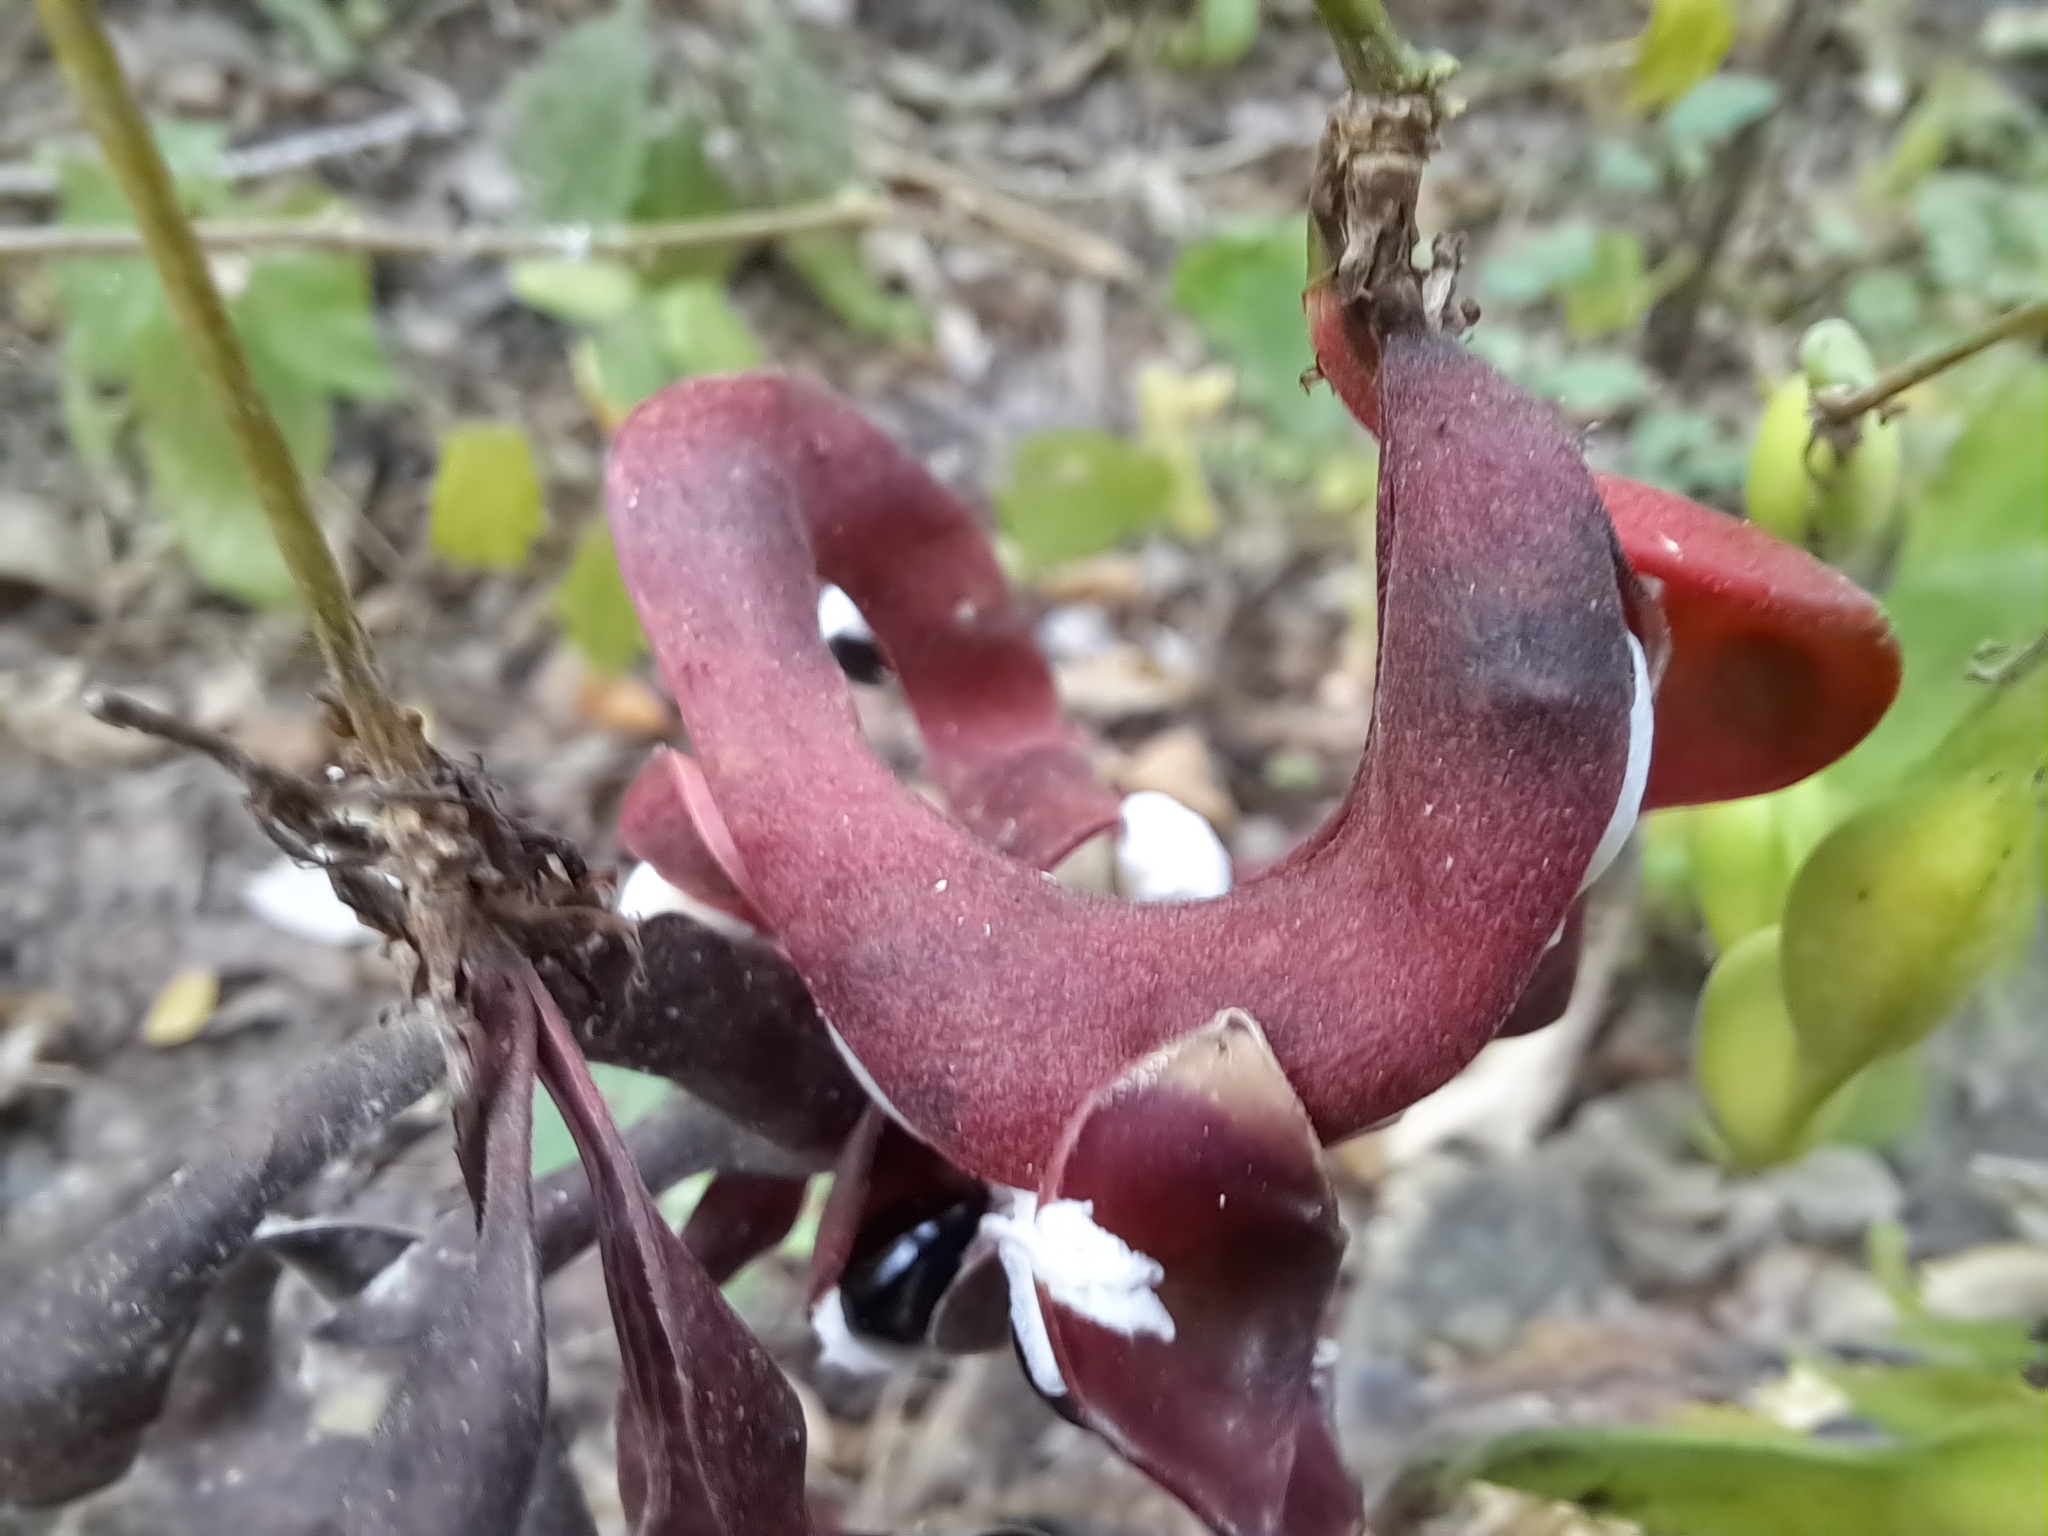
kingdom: Plantae
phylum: Tracheophyta
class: Magnoliopsida
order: Fabales
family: Fabaceae
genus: Pithecellobium
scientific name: Pithecellobium excelsum
